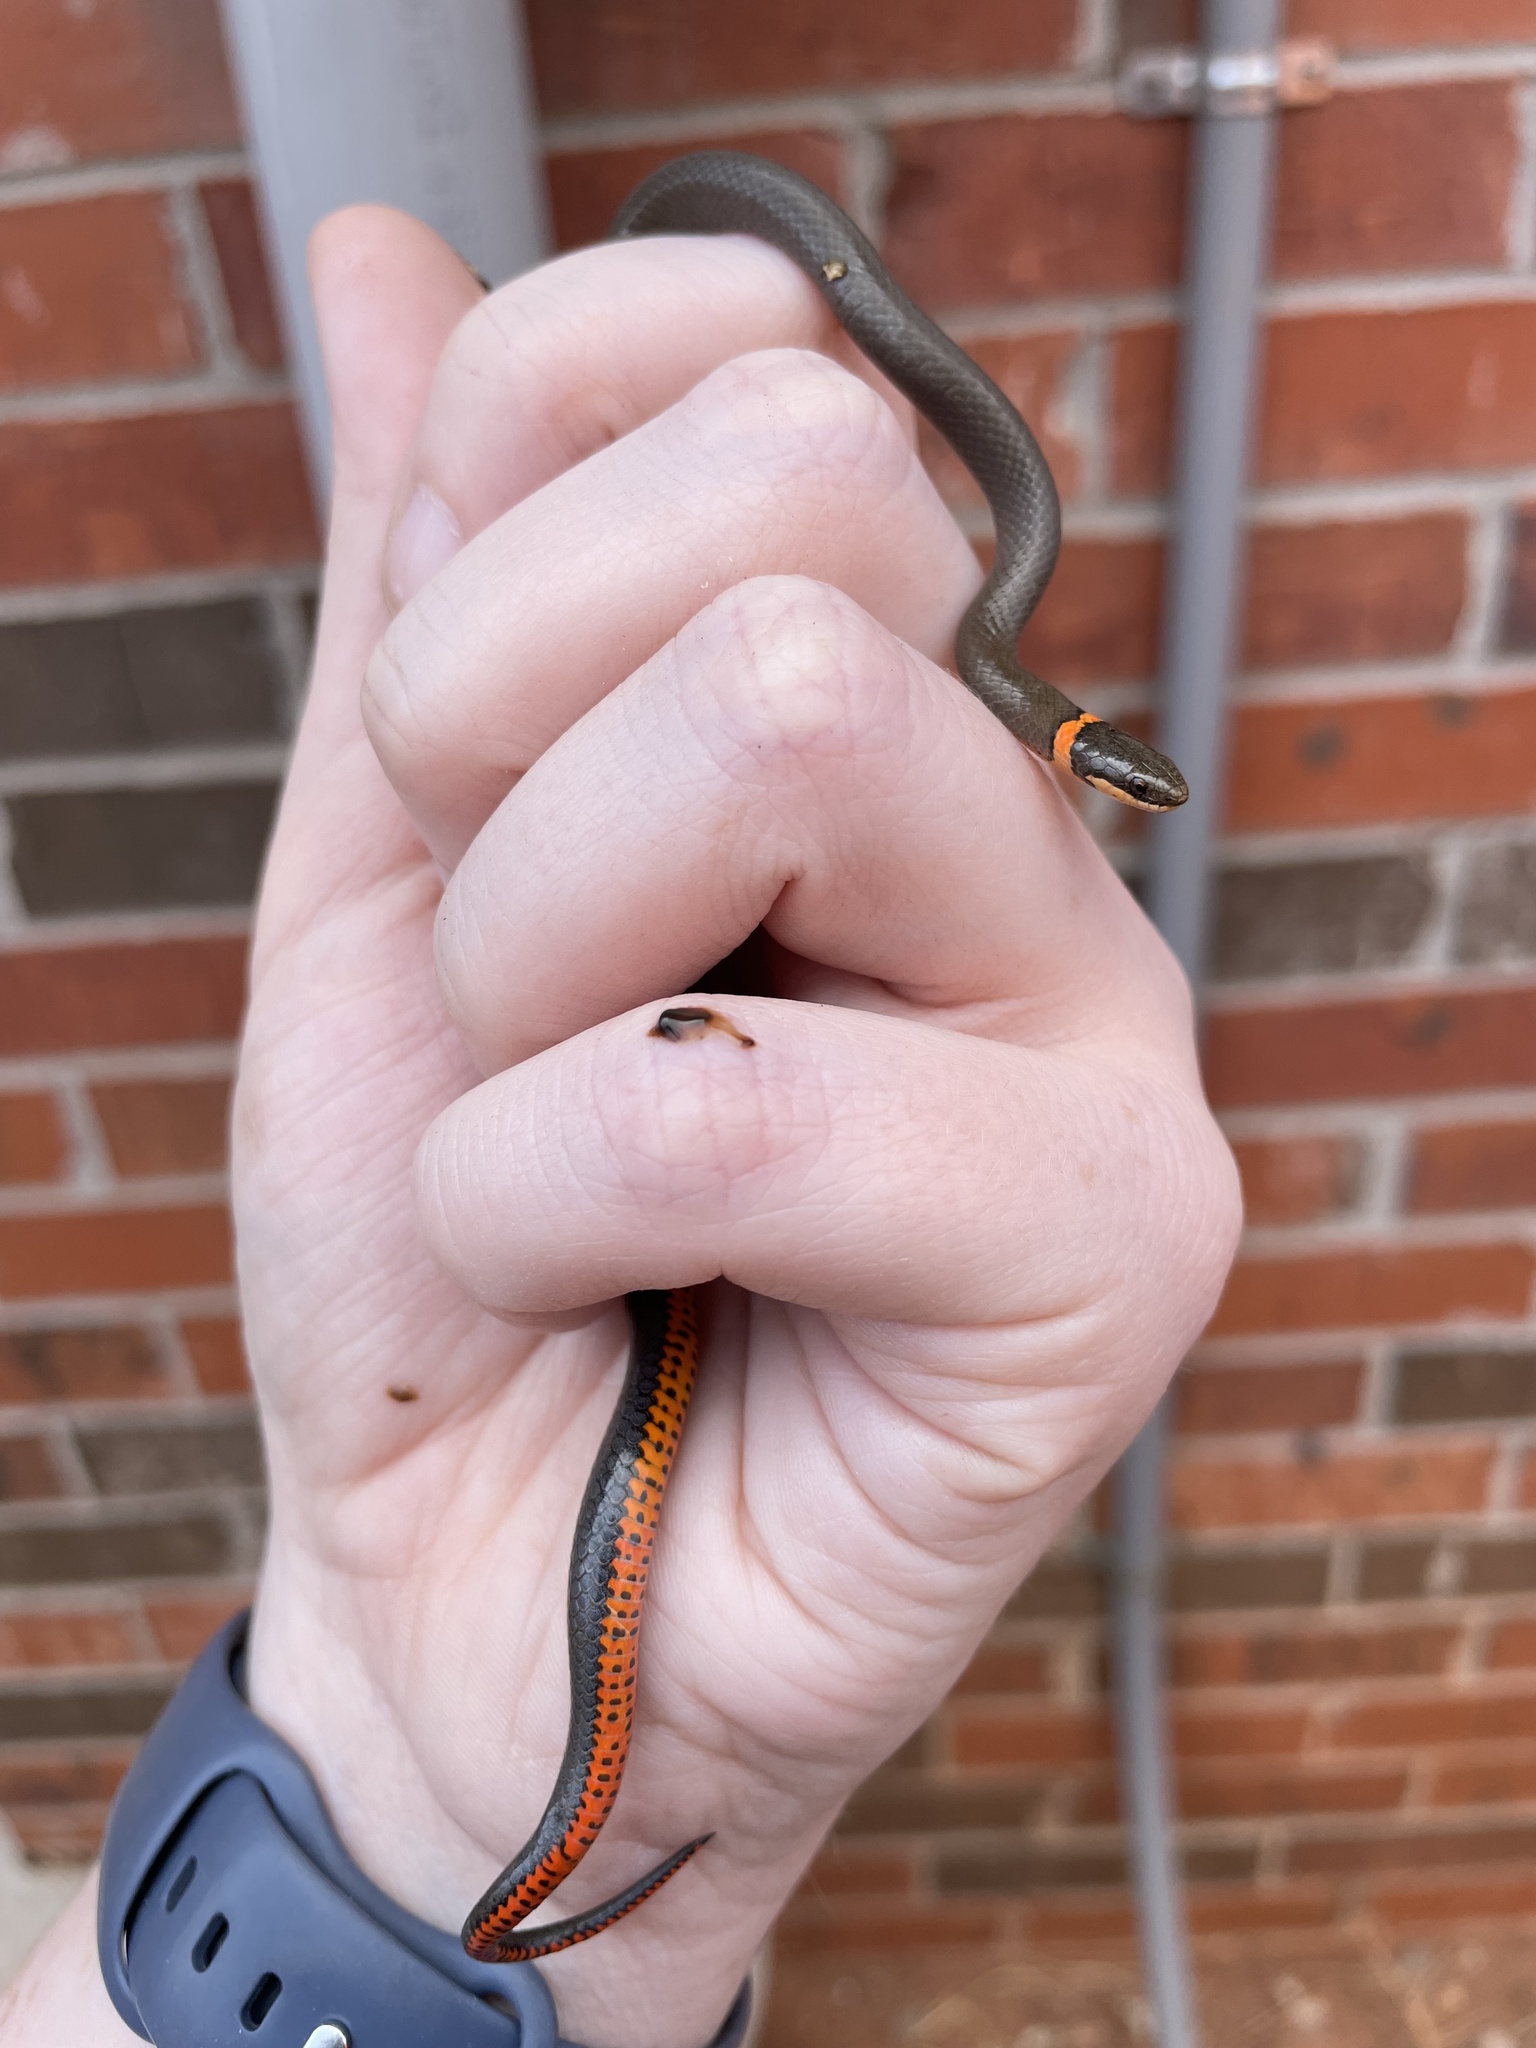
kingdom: Animalia
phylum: Chordata
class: Squamata
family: Colubridae
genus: Diadophis
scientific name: Diadophis punctatus
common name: Ringneck snake
